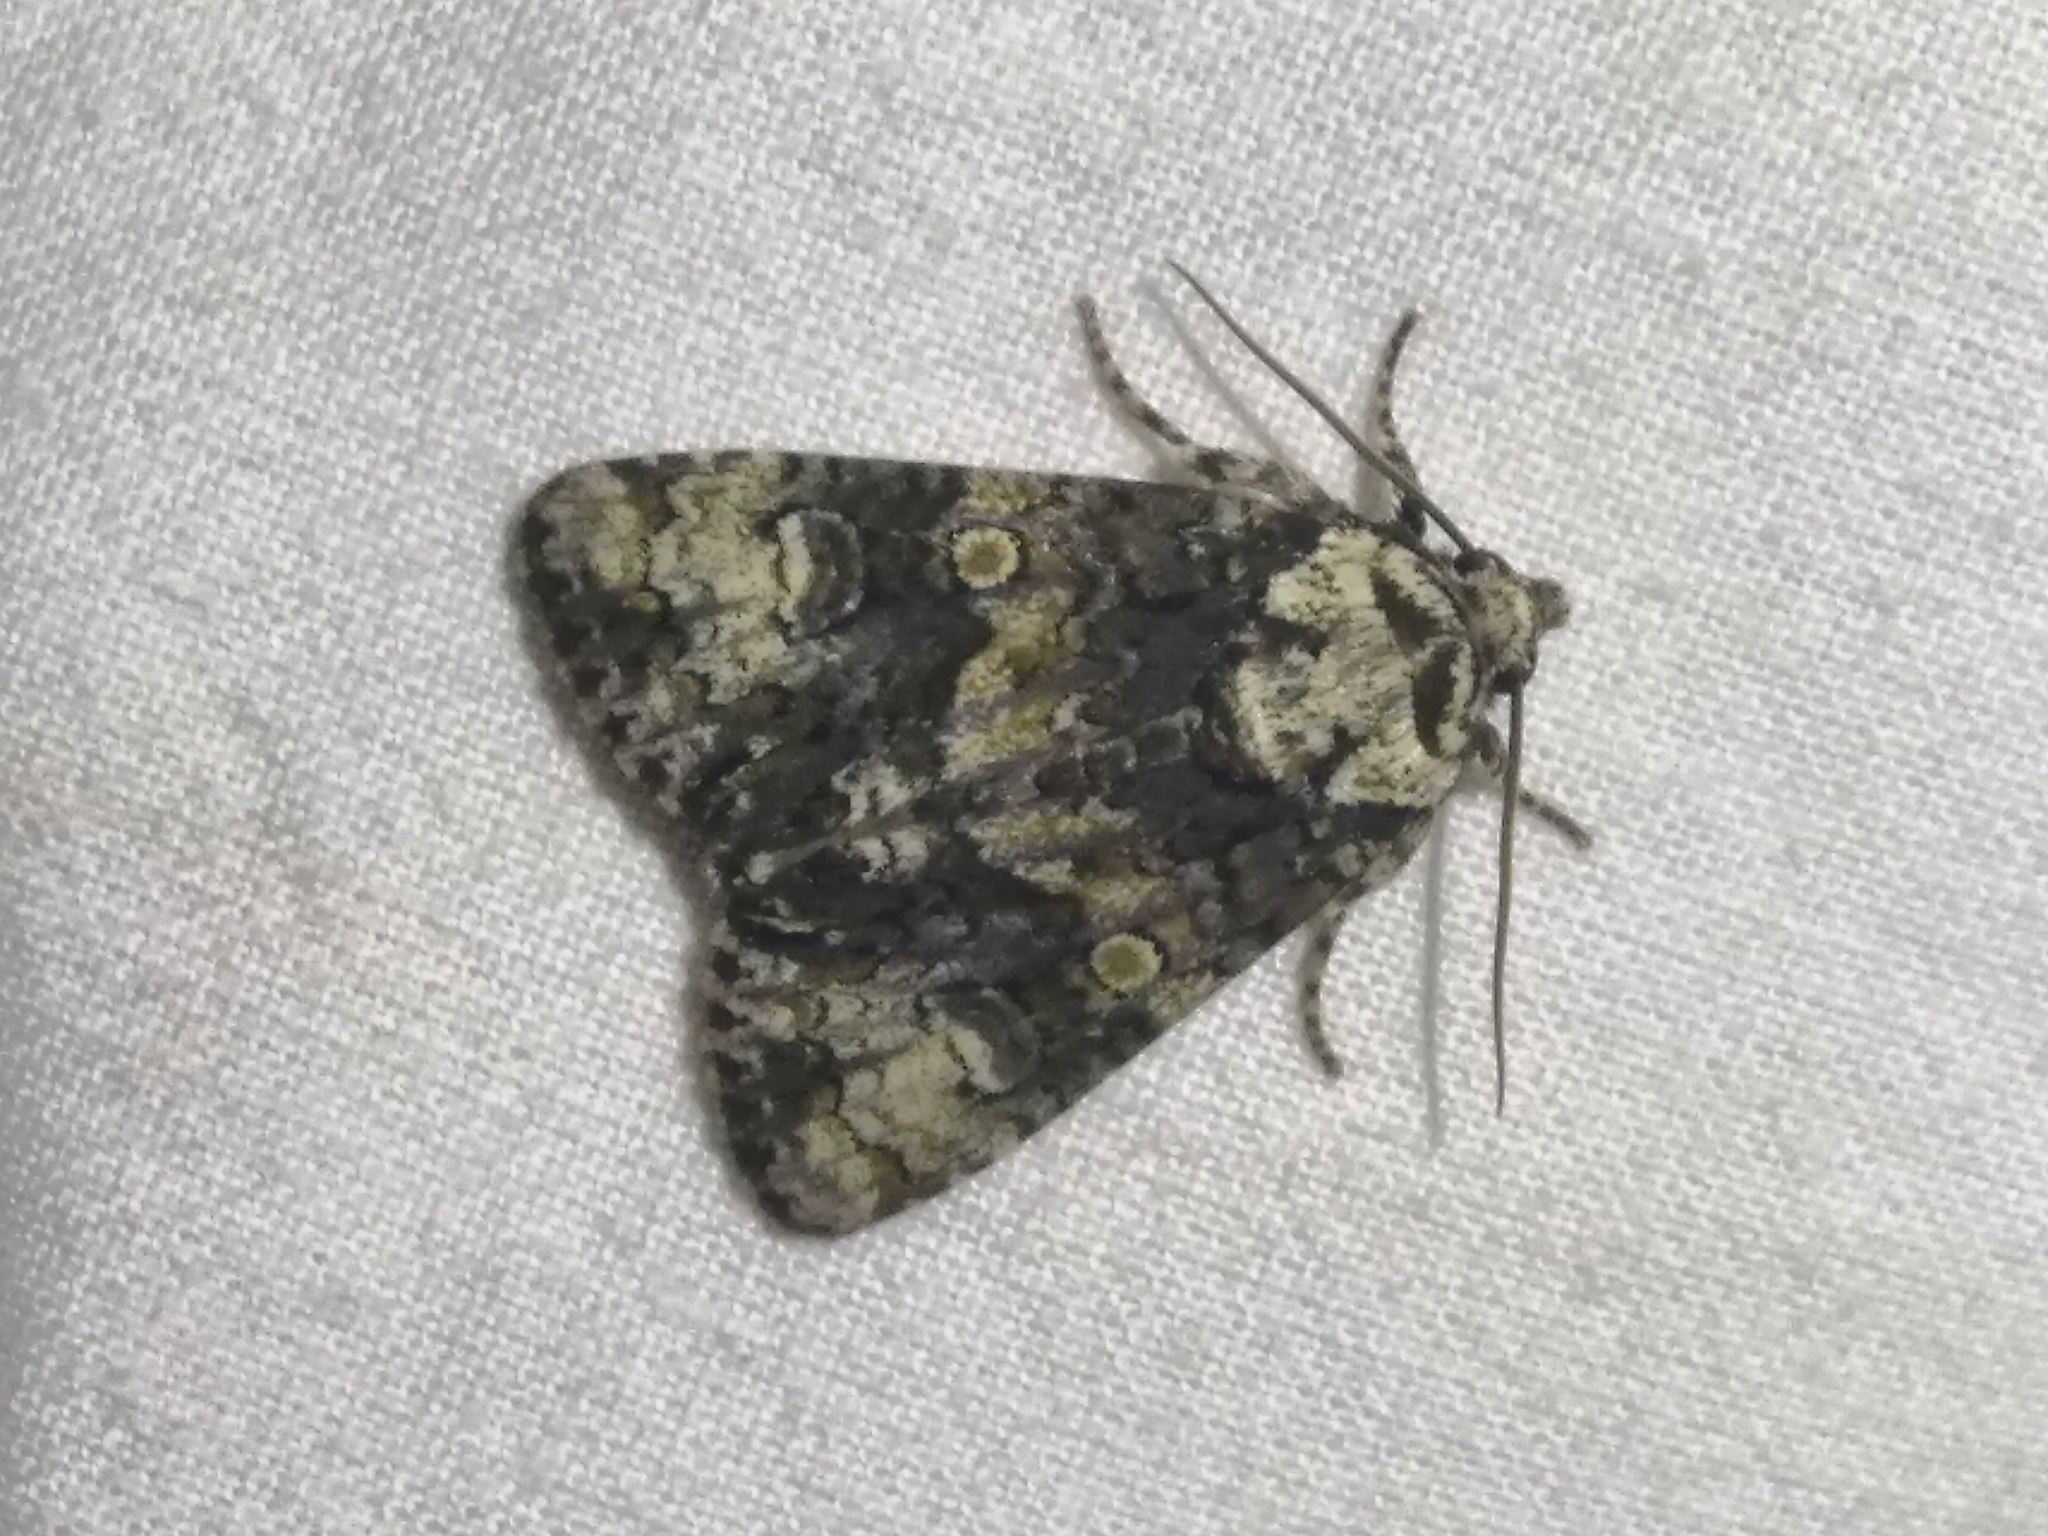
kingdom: Animalia
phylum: Arthropoda
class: Insecta
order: Lepidoptera
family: Noctuidae
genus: Craniophora
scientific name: Craniophora ligustri
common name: Coronet
